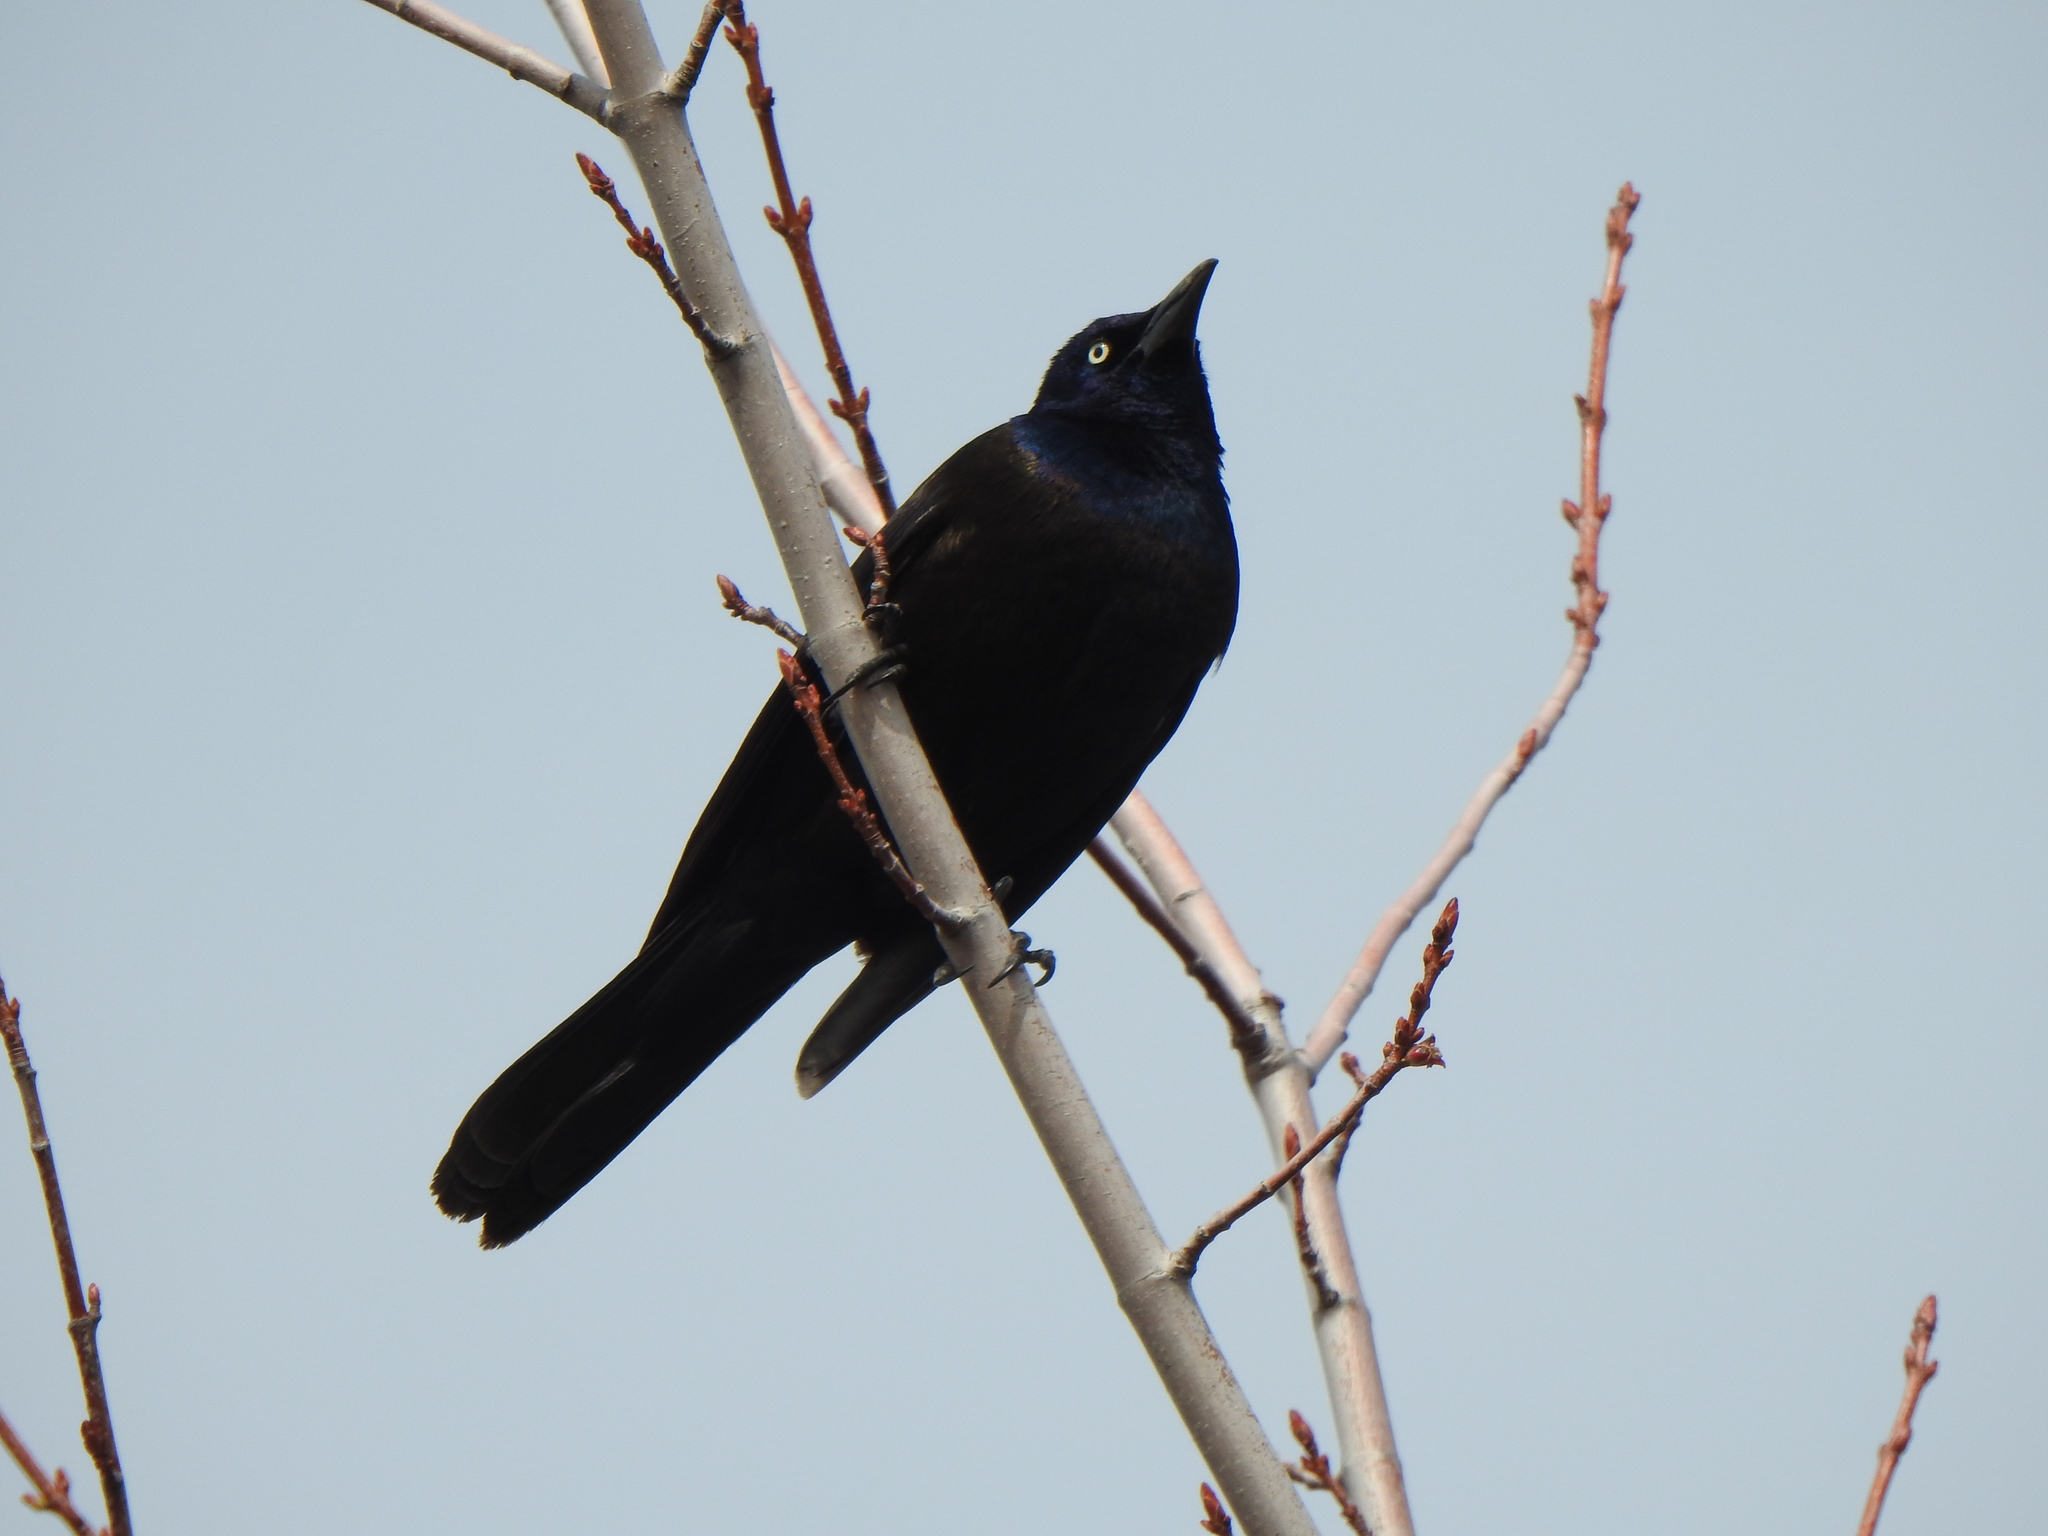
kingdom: Animalia
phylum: Chordata
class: Aves
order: Passeriformes
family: Icteridae
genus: Quiscalus
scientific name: Quiscalus quiscula
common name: Common grackle
